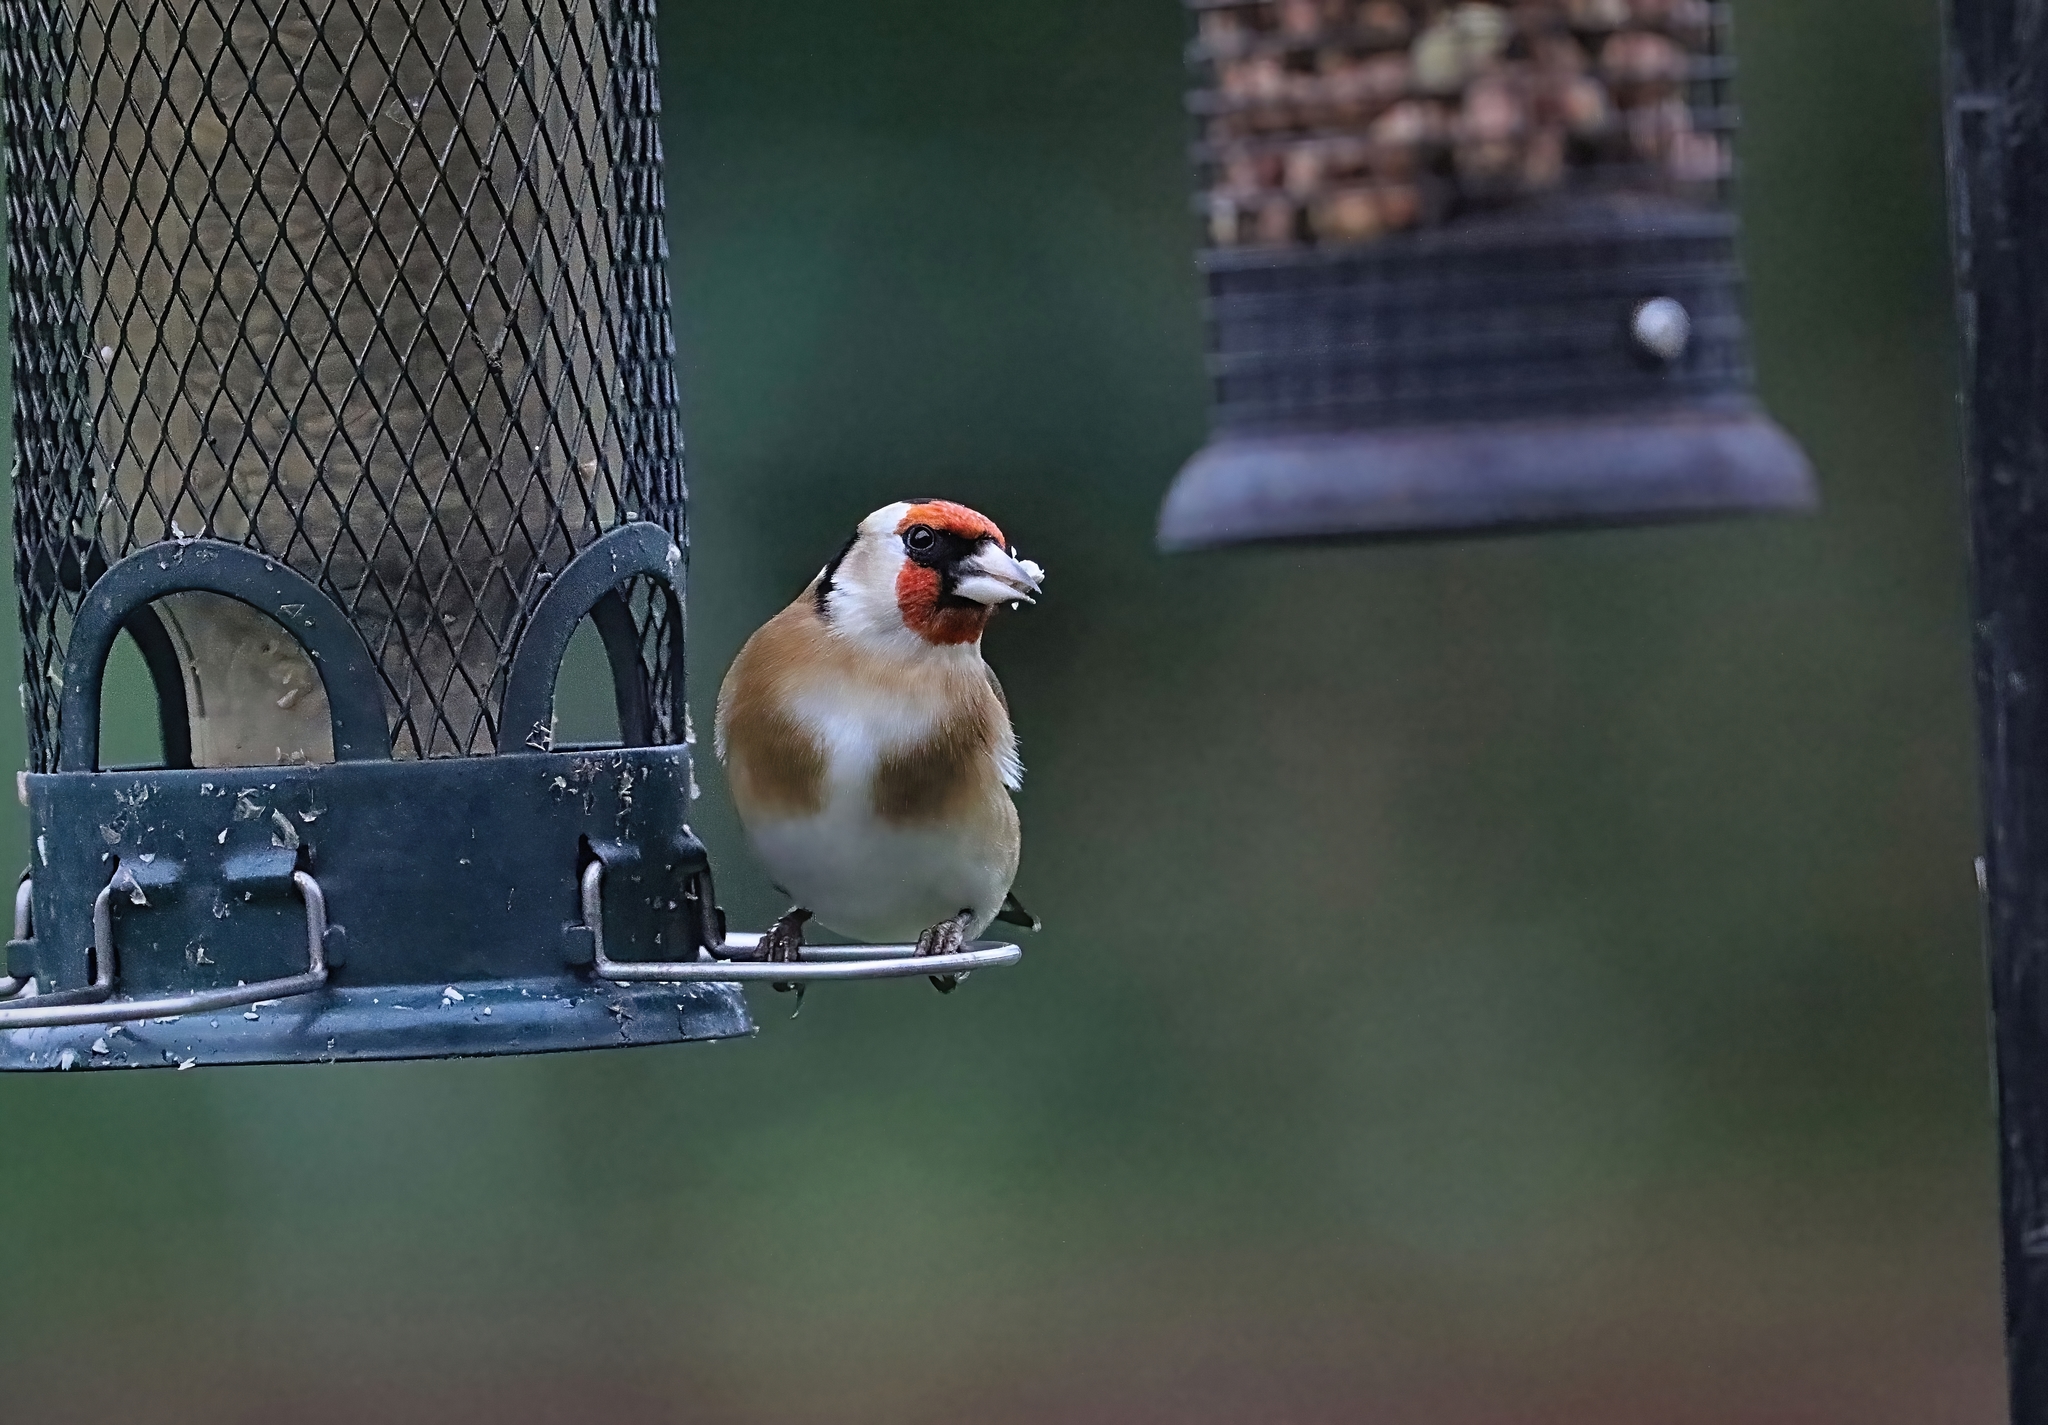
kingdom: Animalia
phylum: Chordata
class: Aves
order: Passeriformes
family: Fringillidae
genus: Carduelis
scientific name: Carduelis carduelis
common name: European goldfinch
